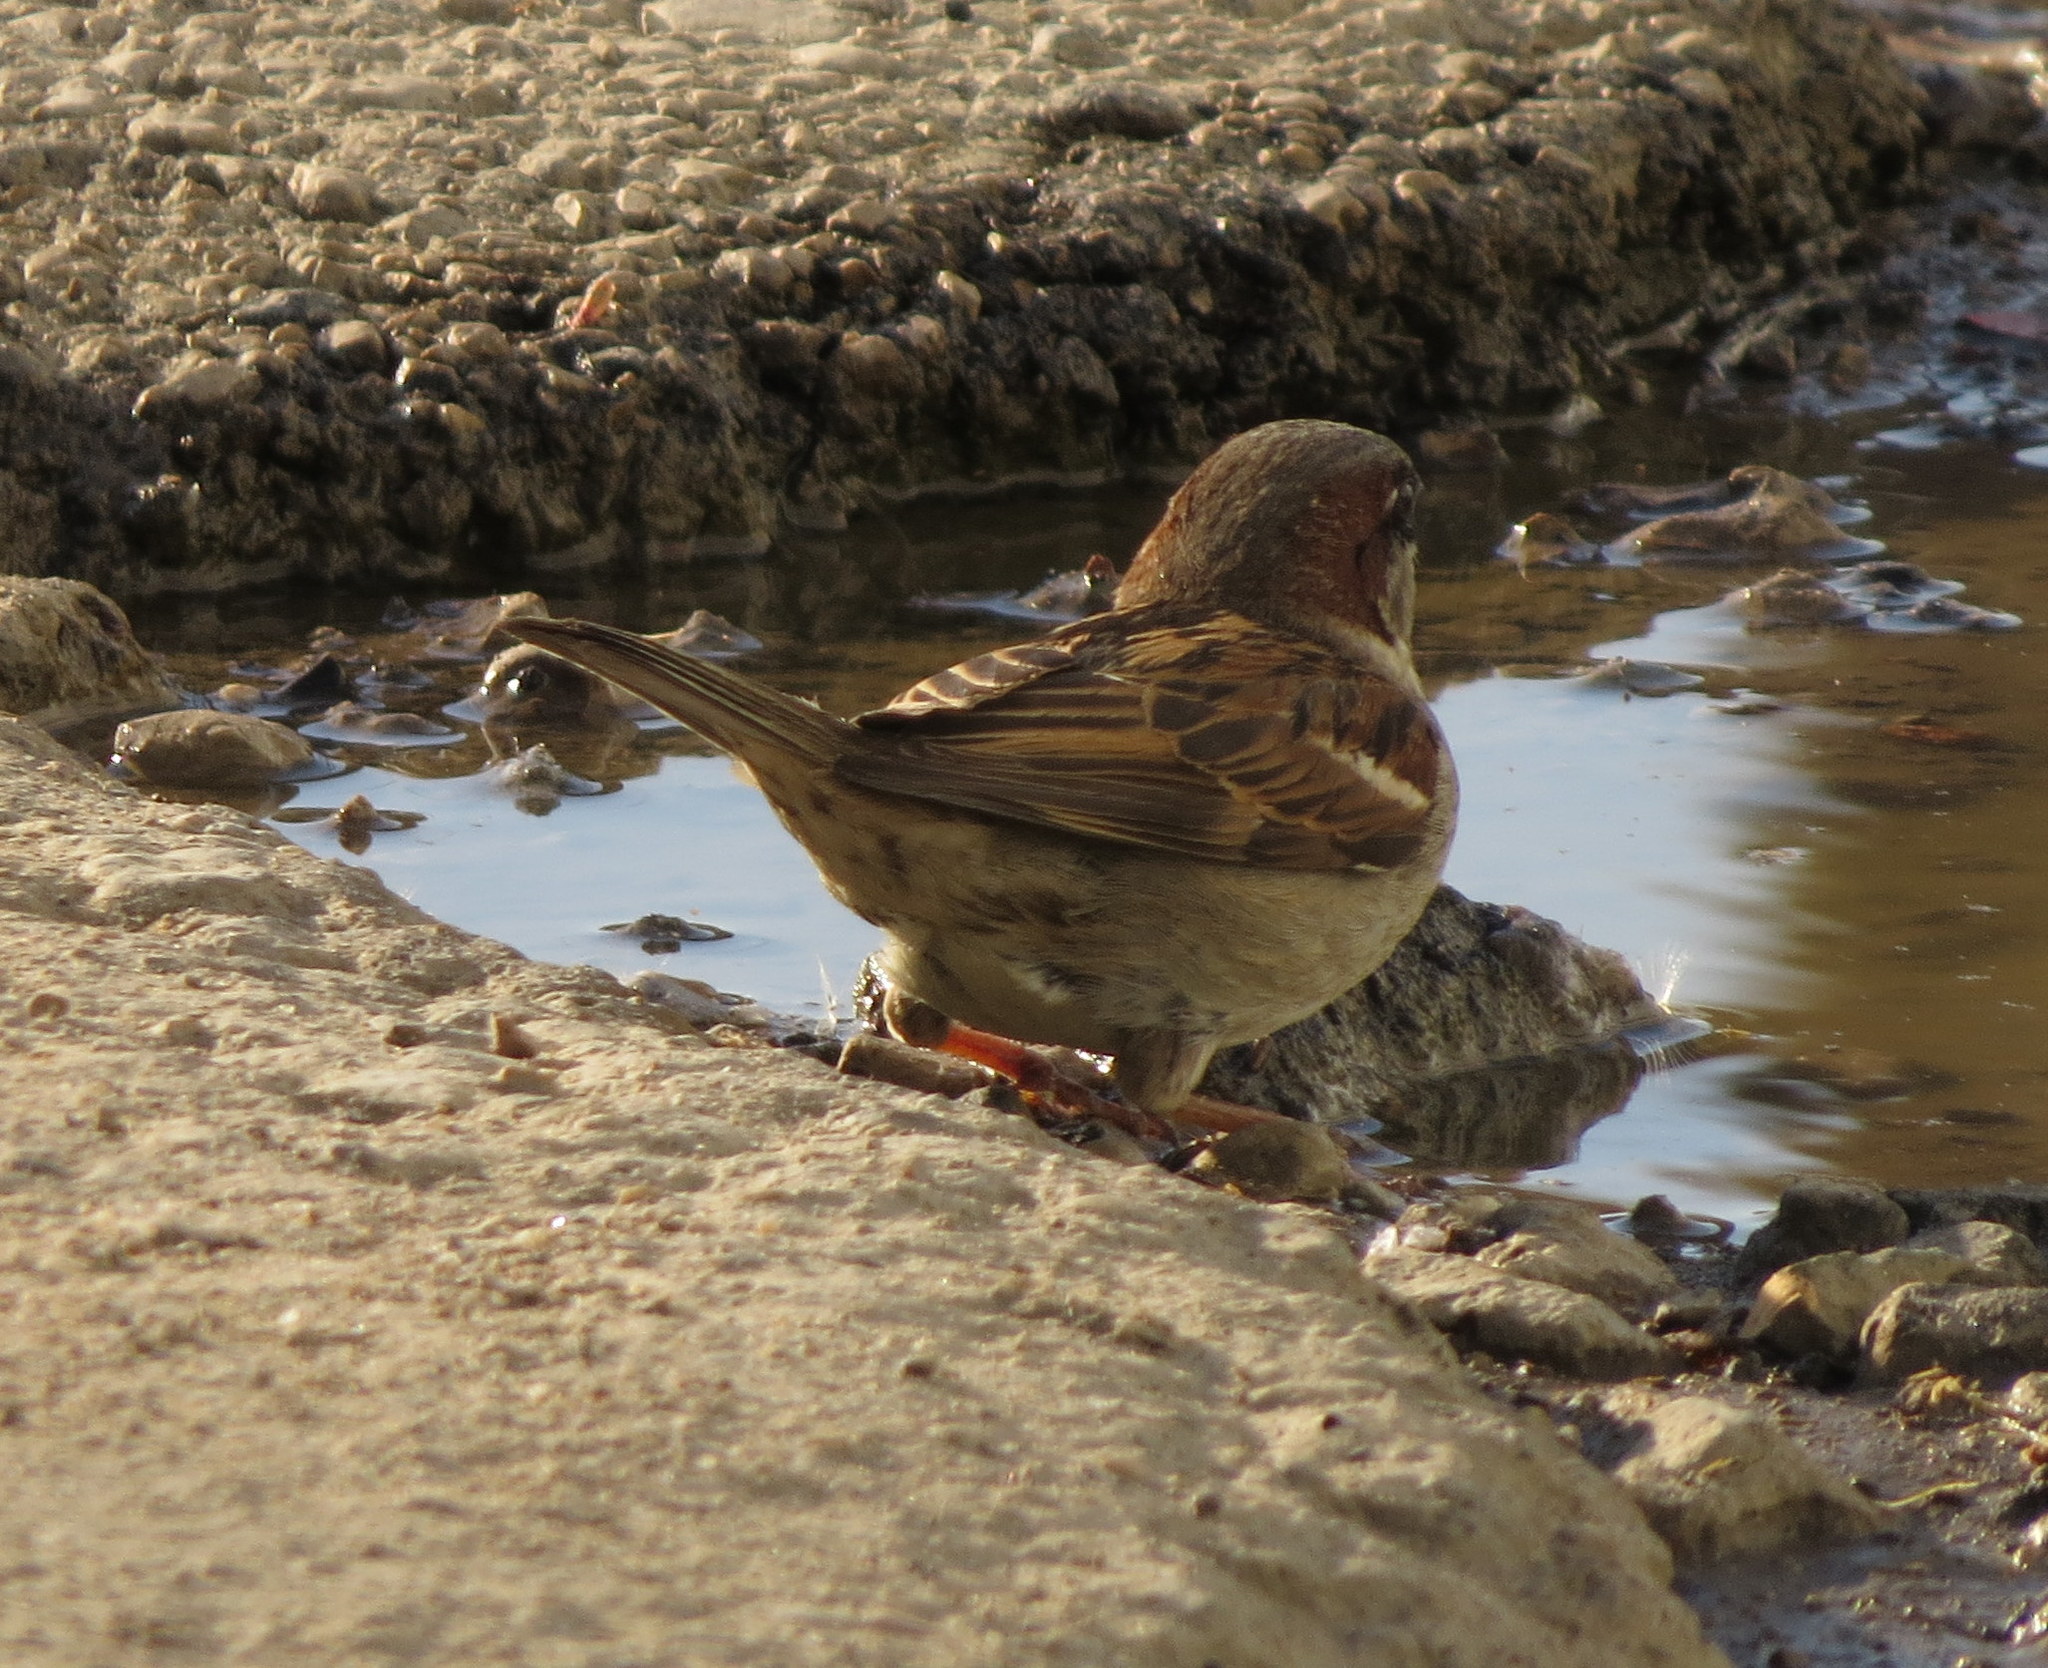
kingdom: Animalia
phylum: Chordata
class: Aves
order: Passeriformes
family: Passeridae
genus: Passer
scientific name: Passer domesticus
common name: House sparrow
